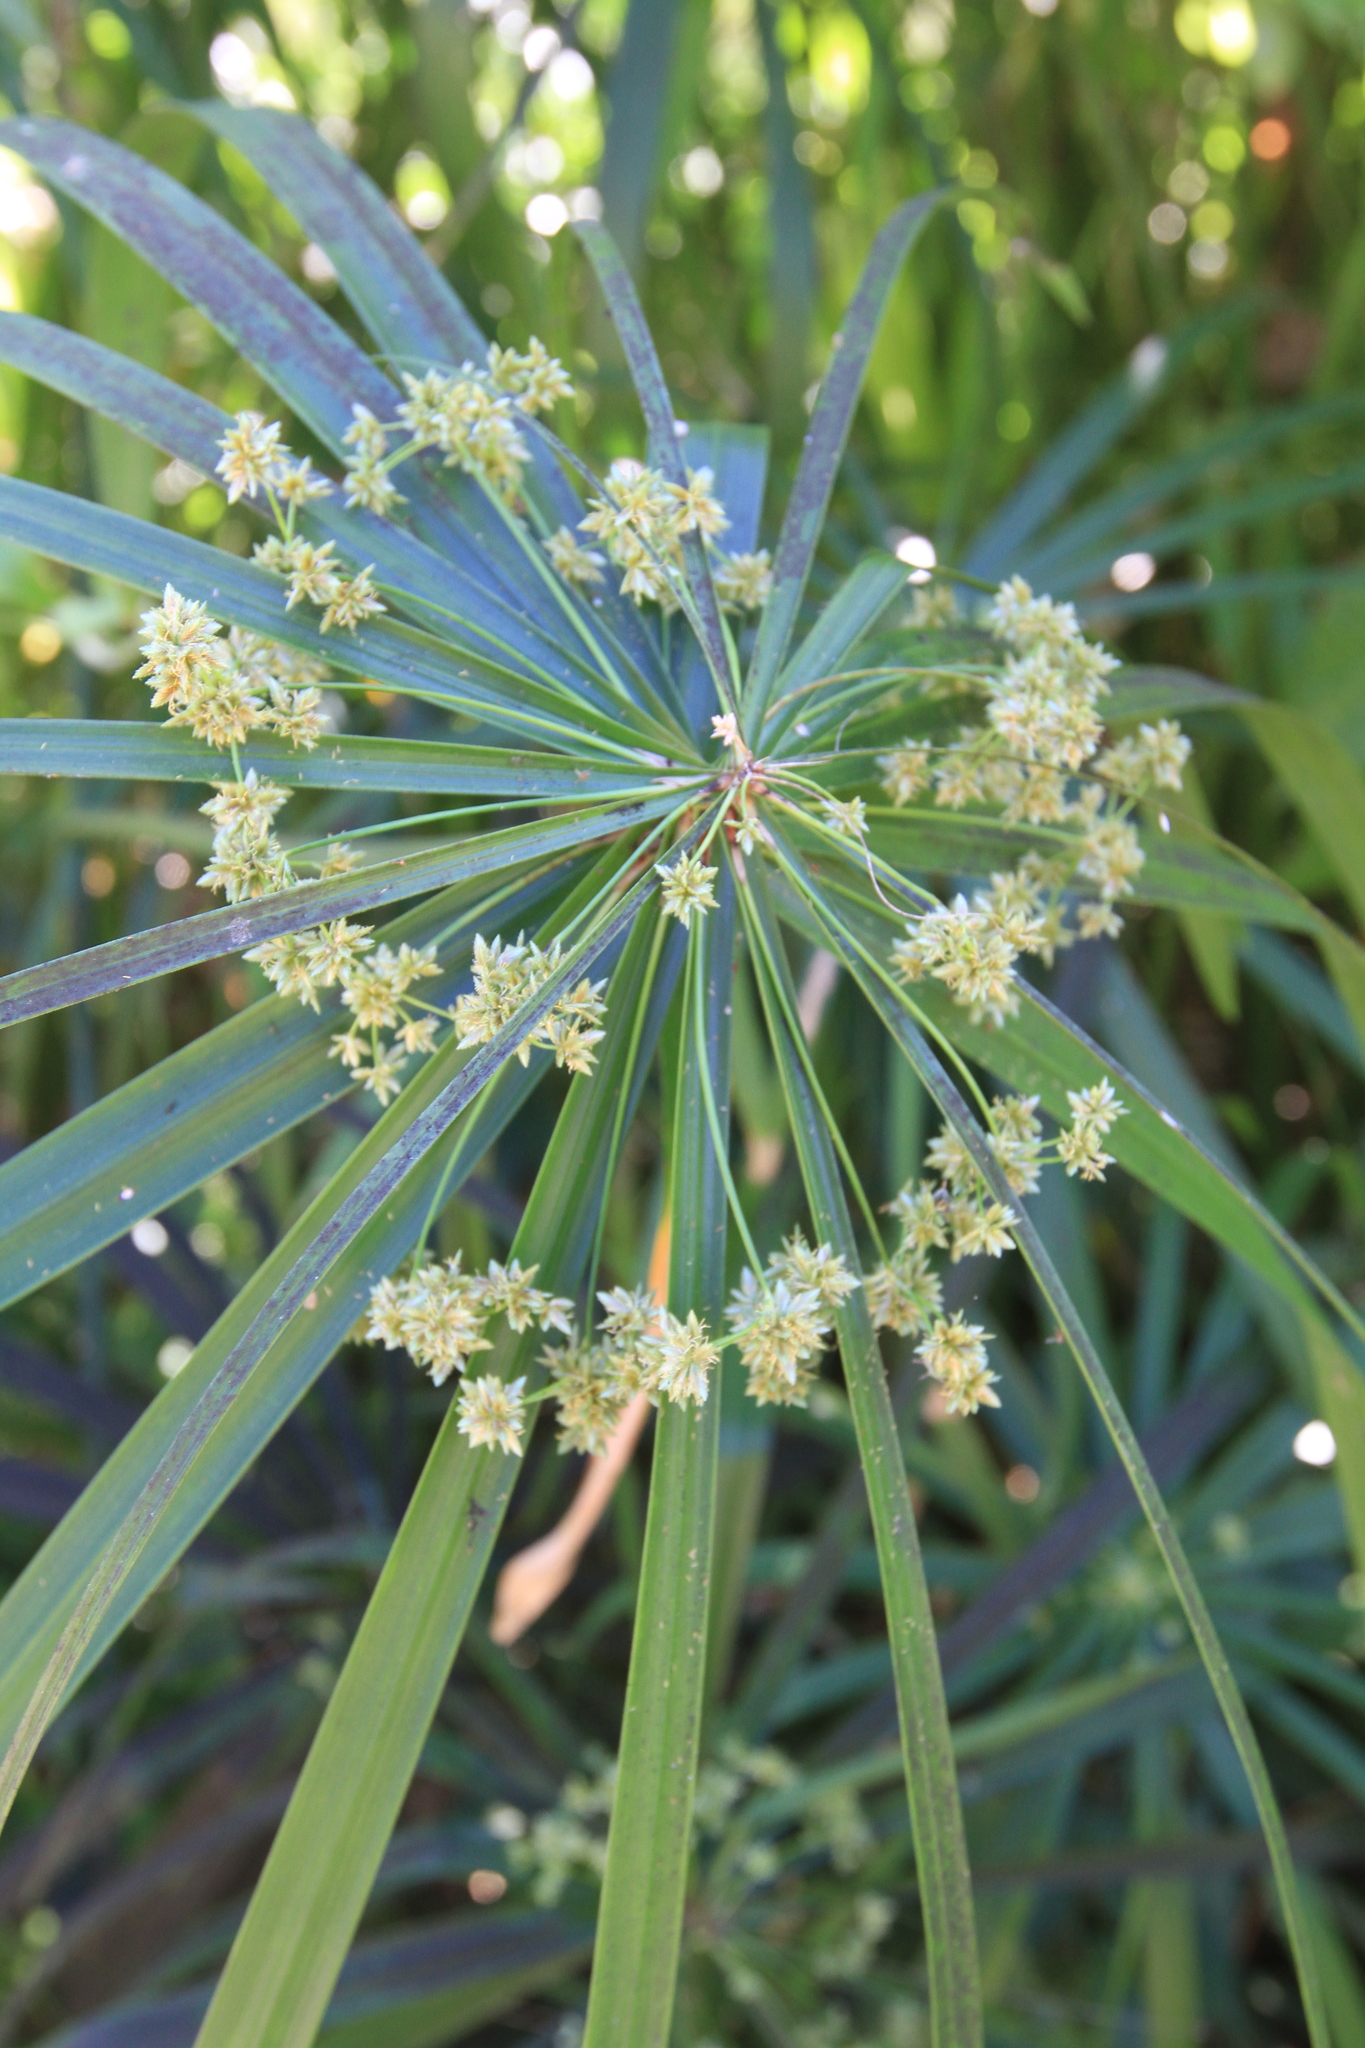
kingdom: Plantae
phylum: Tracheophyta
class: Liliopsida
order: Poales
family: Cyperaceae
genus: Cyperus
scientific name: Cyperus alternifolius
